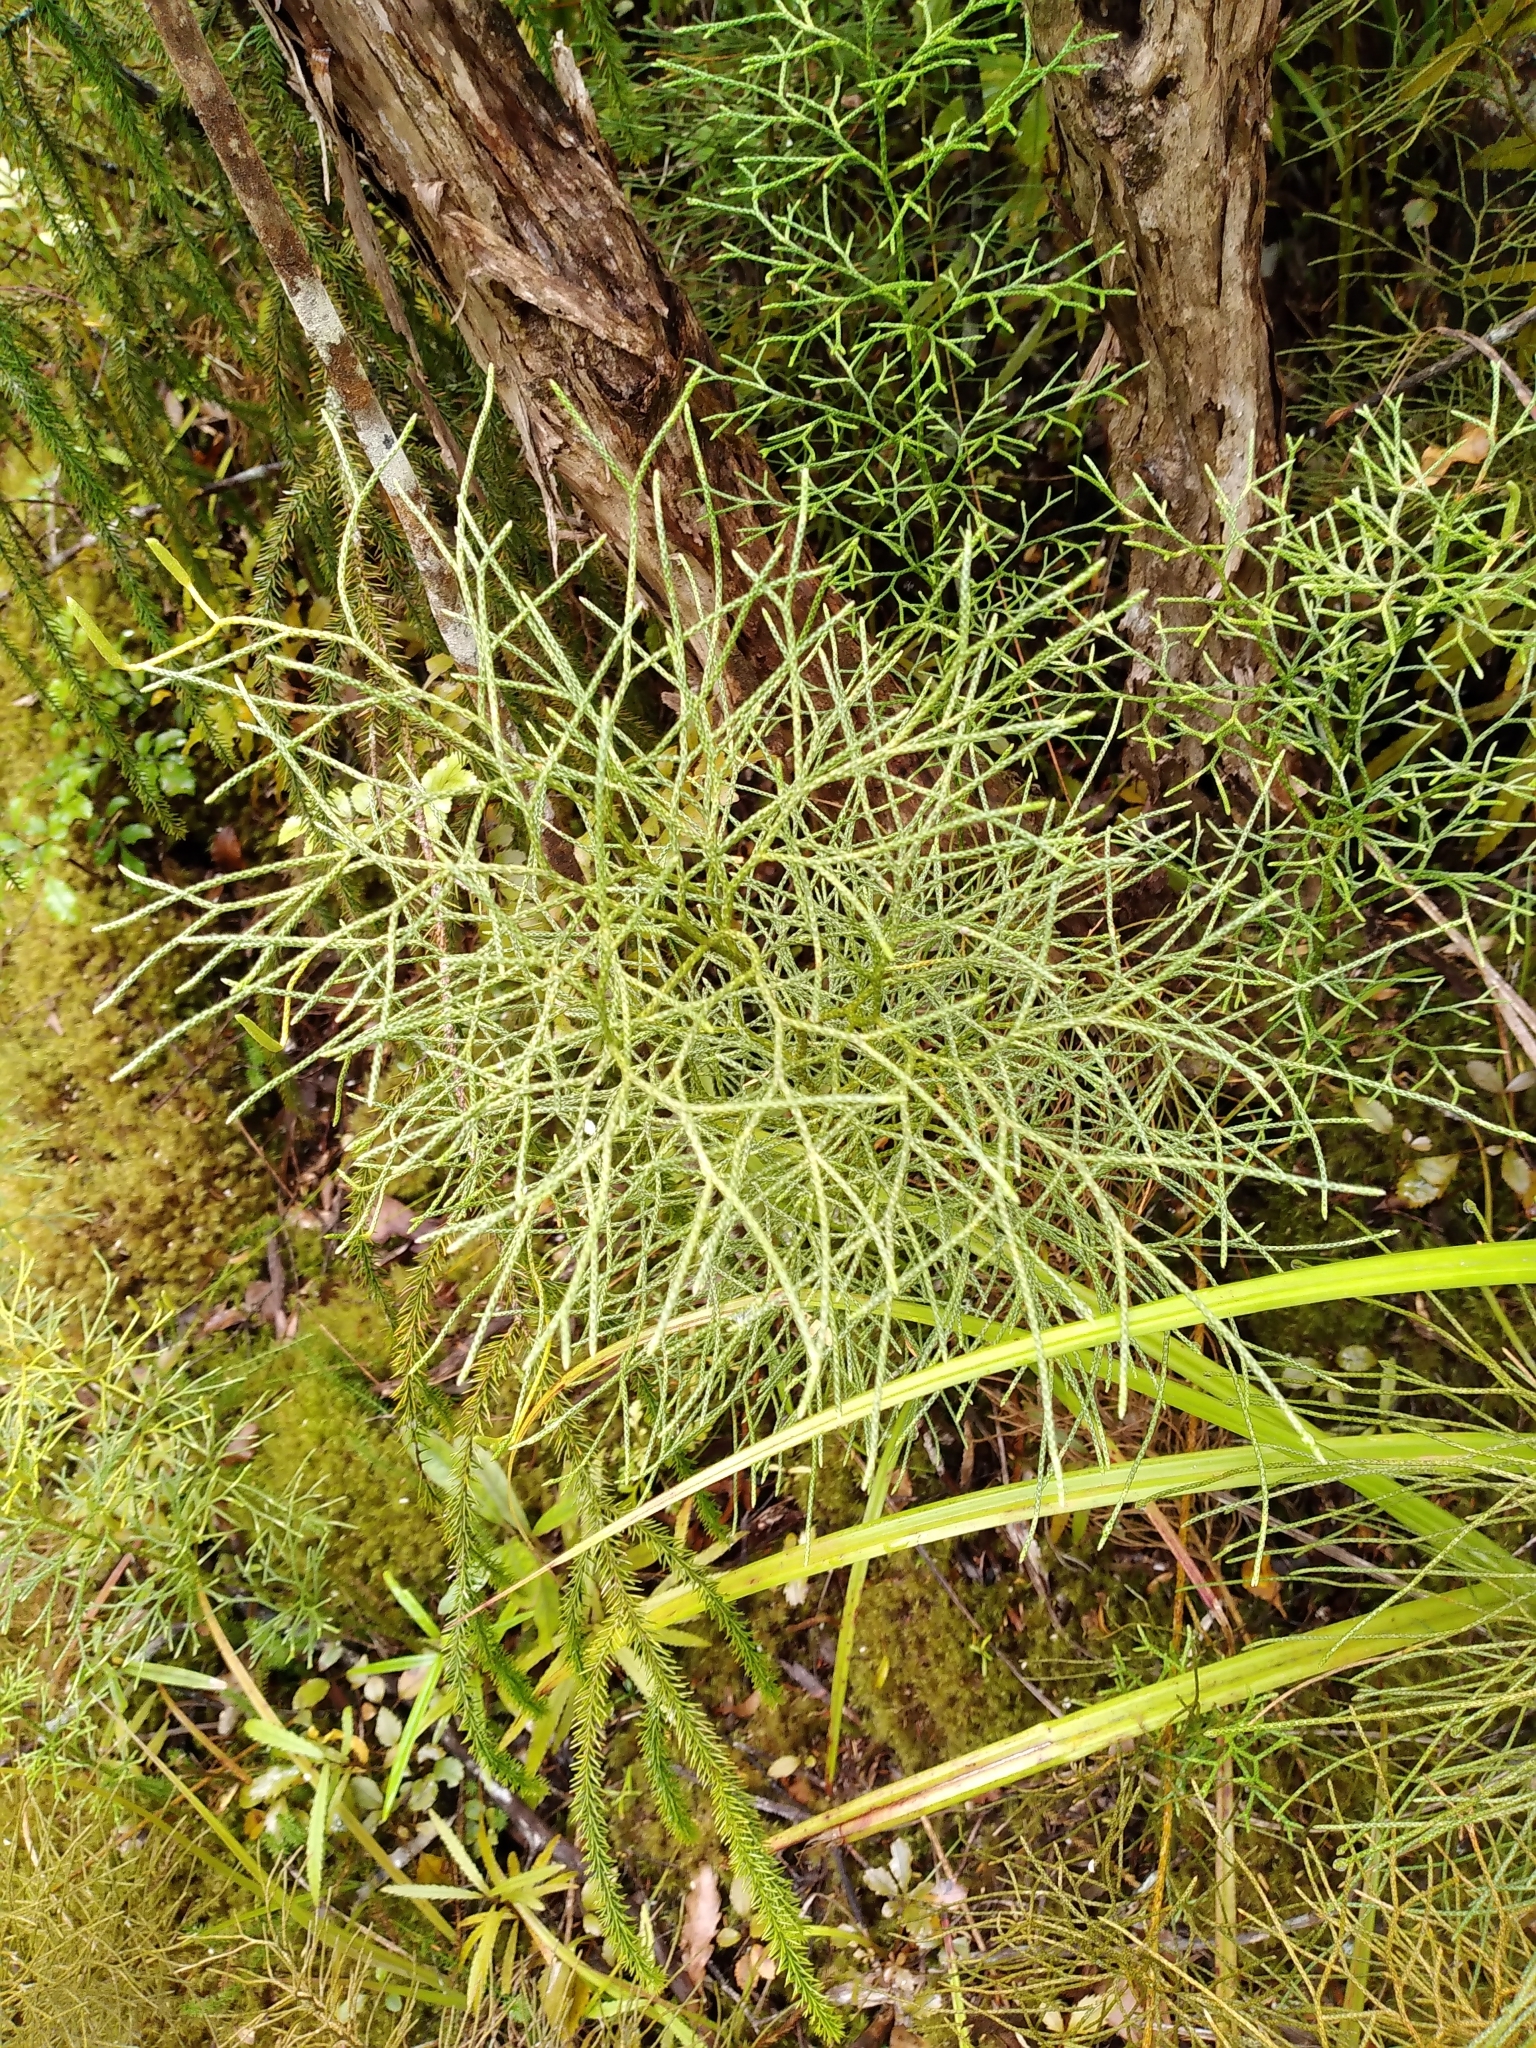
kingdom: Plantae
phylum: Tracheophyta
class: Lycopodiopsida
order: Lycopodiales
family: Lycopodiaceae
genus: Pseudolycopodium
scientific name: Pseudolycopodium densum
